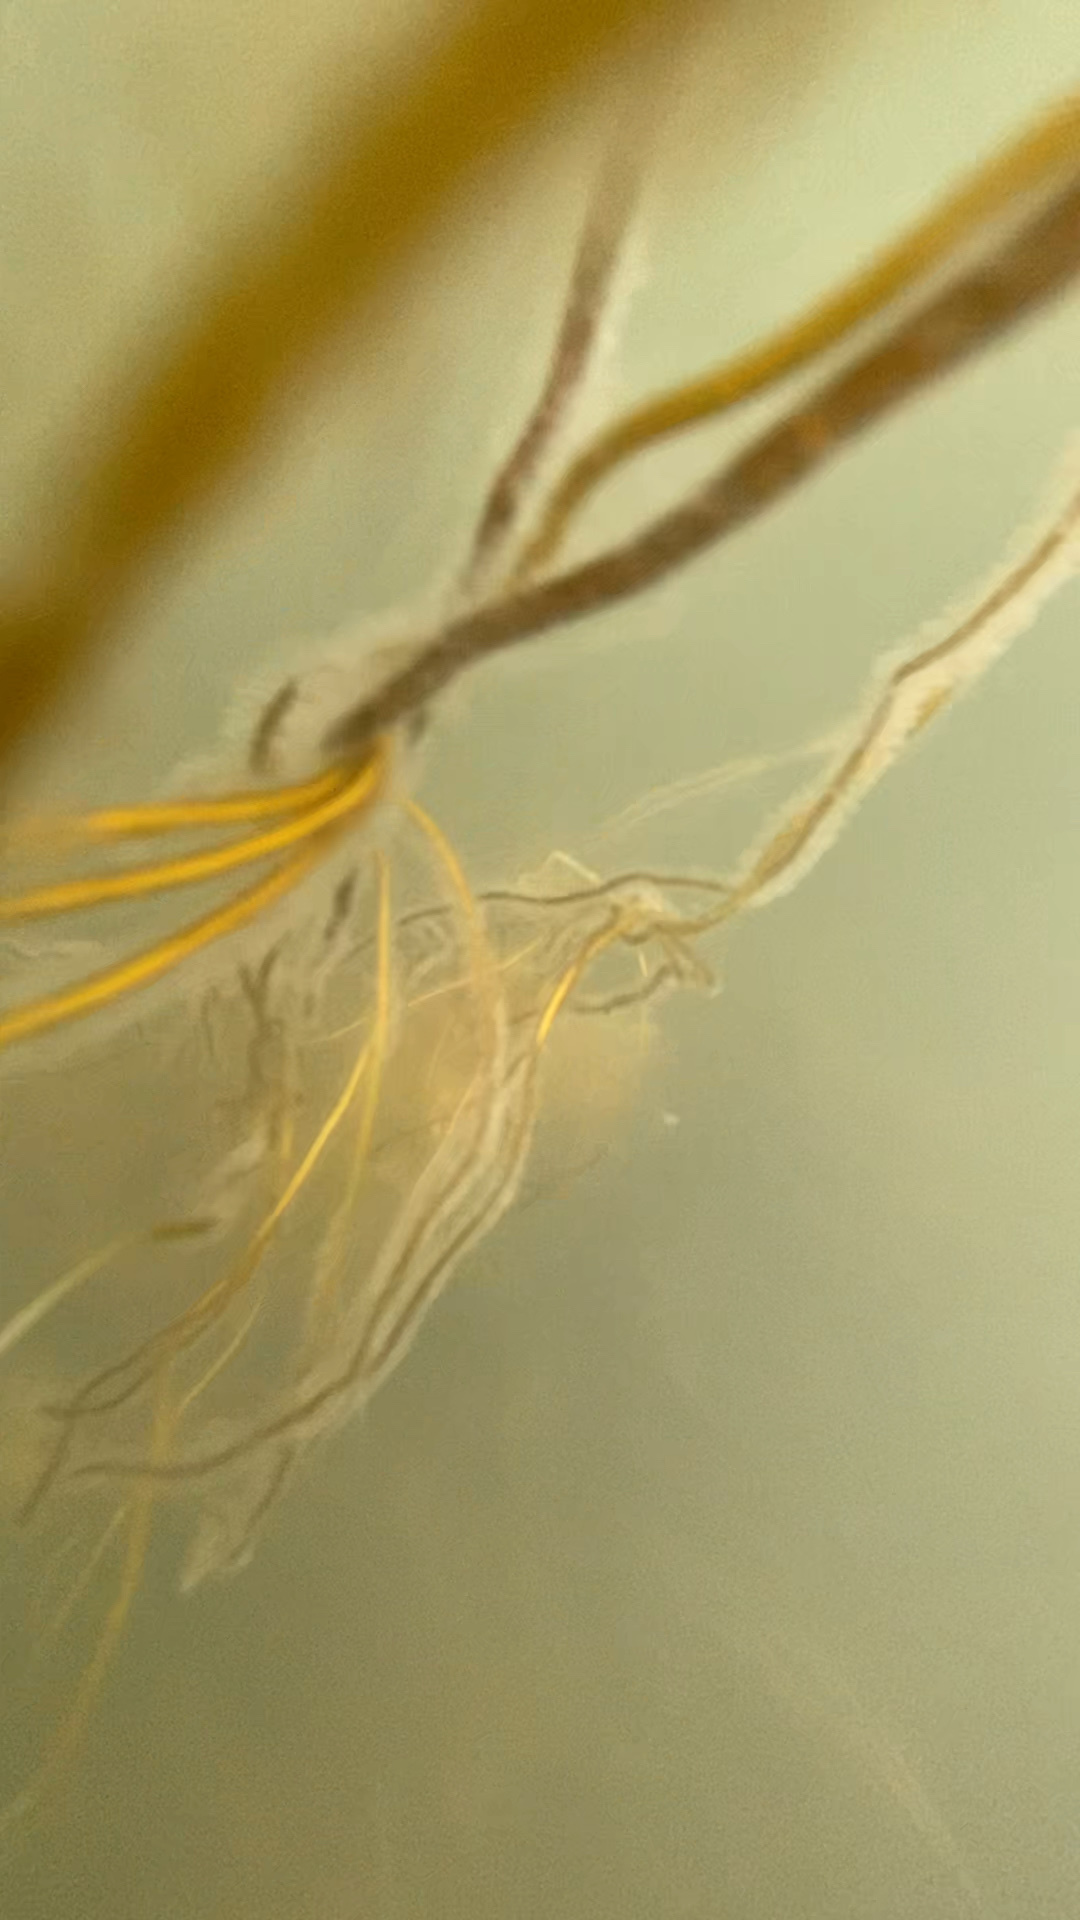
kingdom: Chromista
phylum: Ochrophyta
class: Phaeophyceae
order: Laminariales
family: Chordaceae
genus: Chorda
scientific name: Chorda filum
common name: Mermaid's tresses
